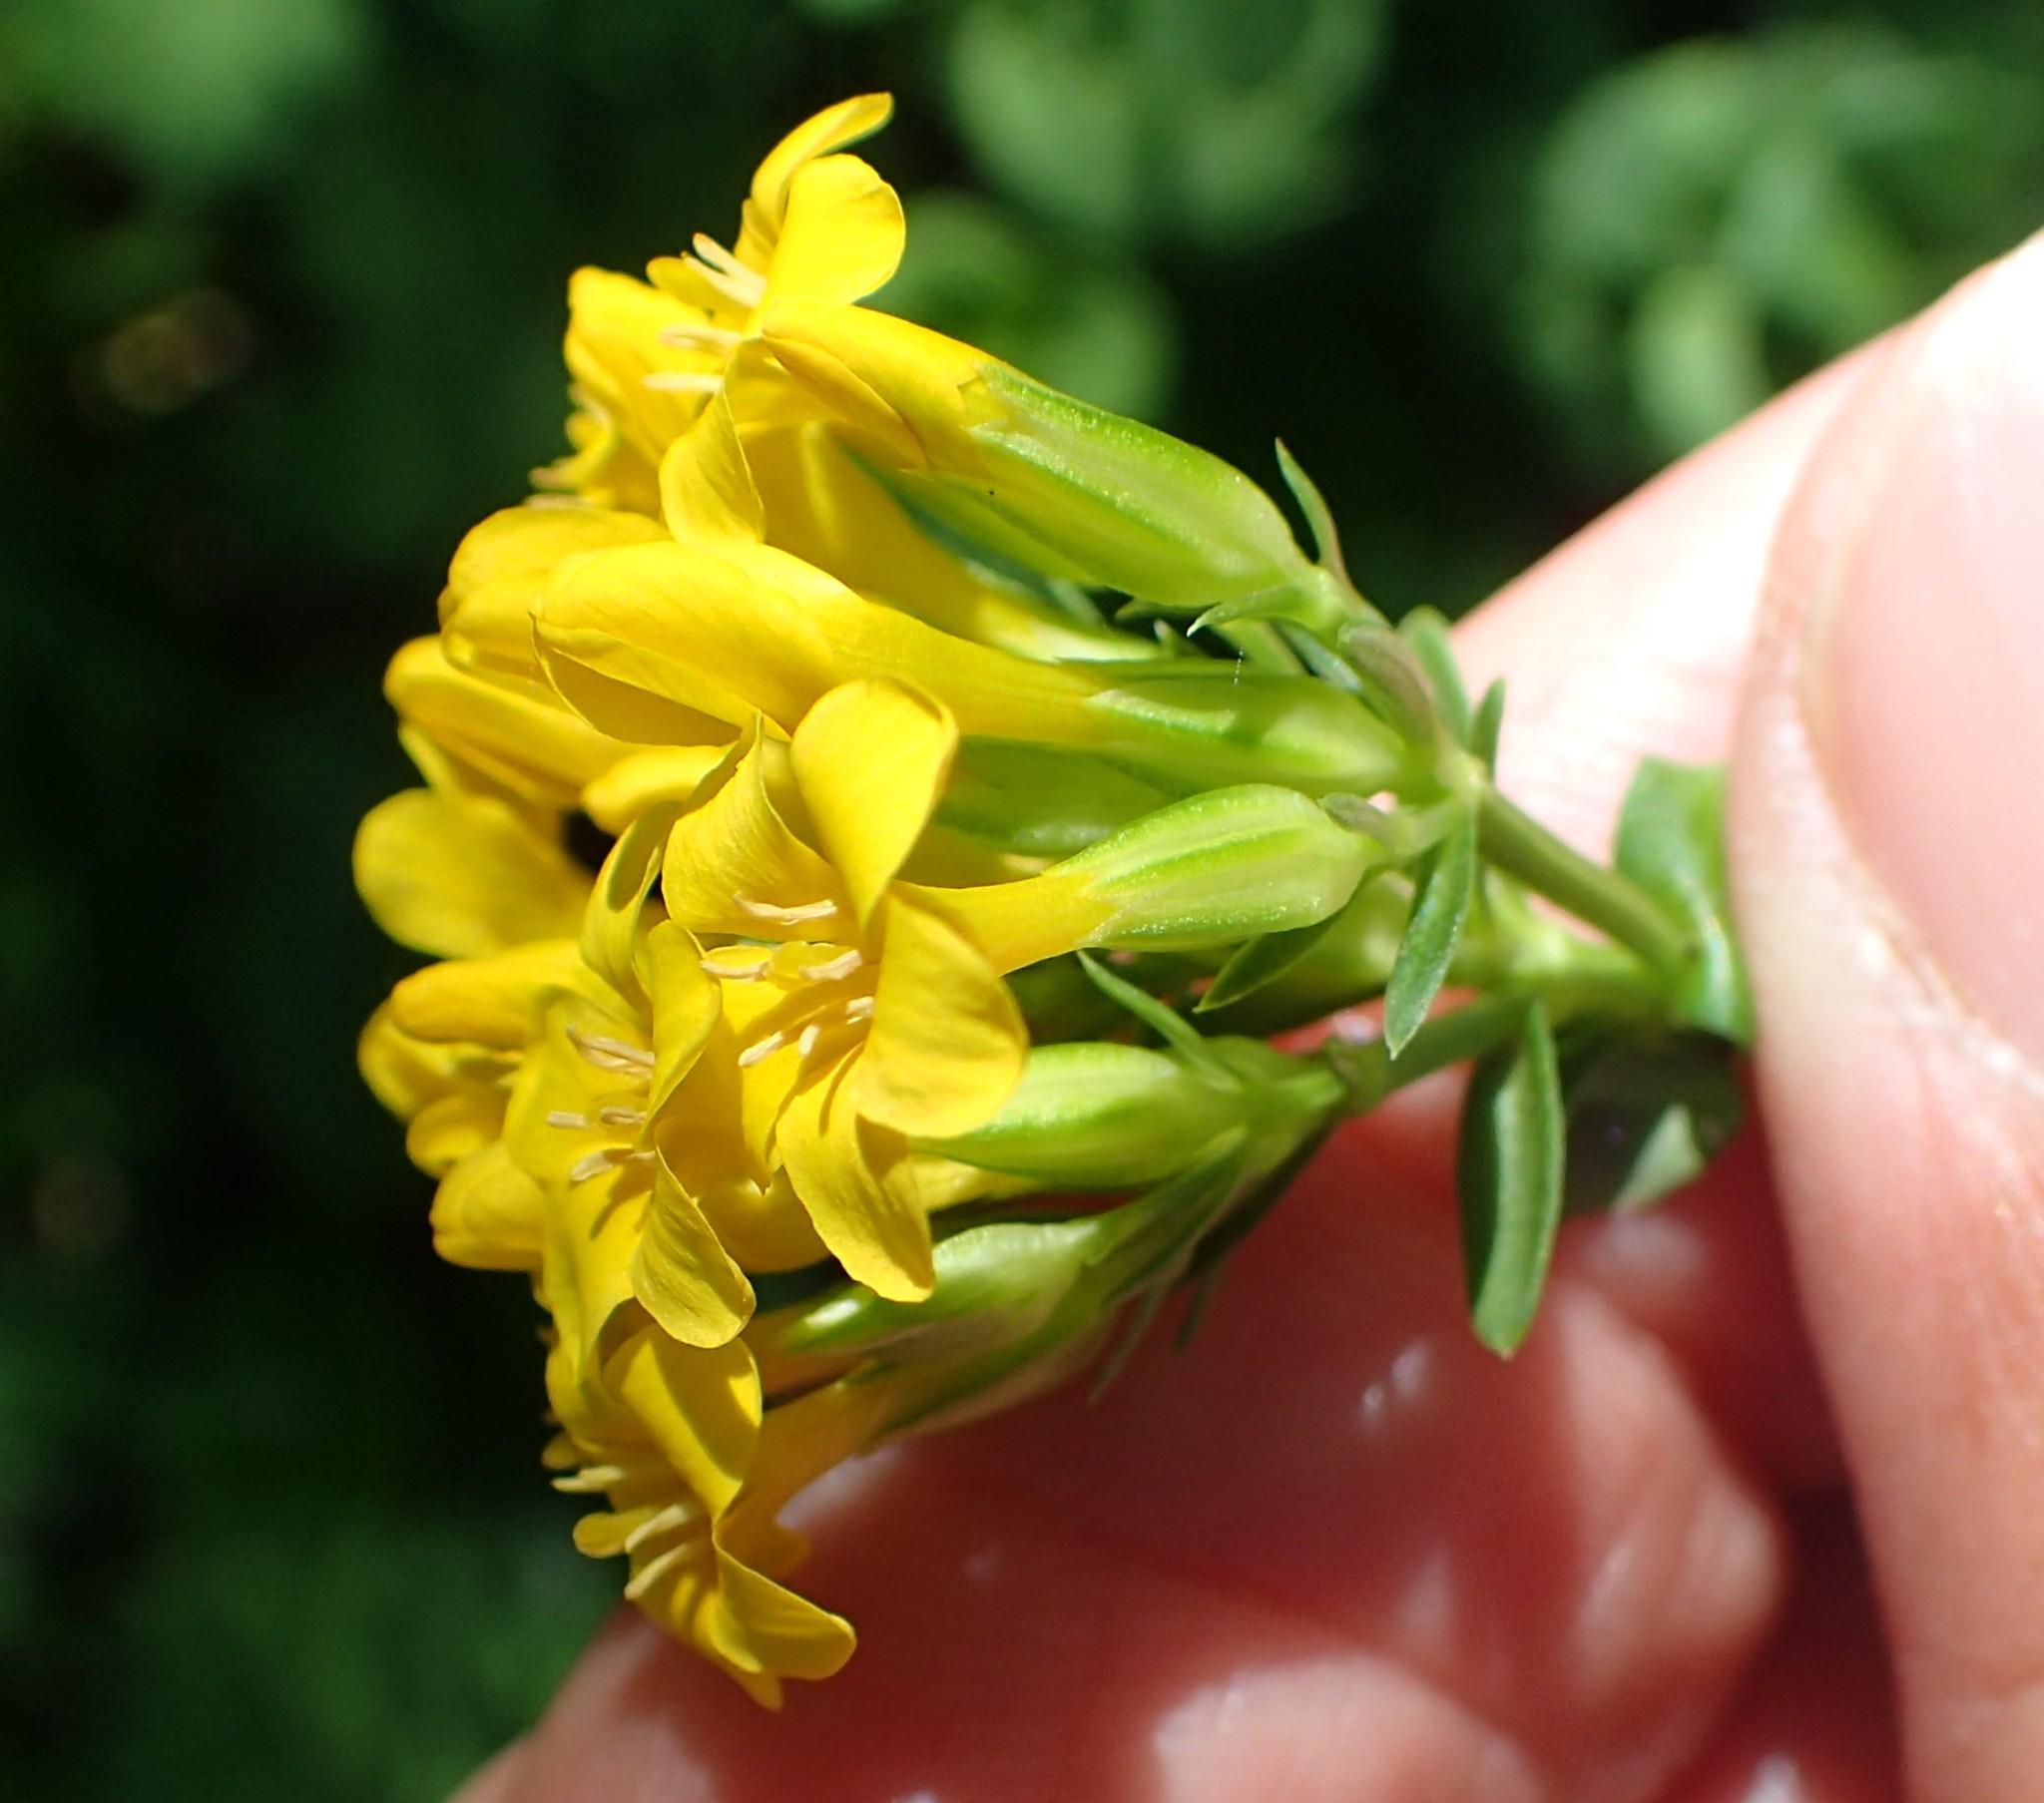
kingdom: Plantae
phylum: Tracheophyta
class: Magnoliopsida
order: Gentianales
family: Gentianaceae
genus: Sebaea
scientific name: Sebaea natalensis
